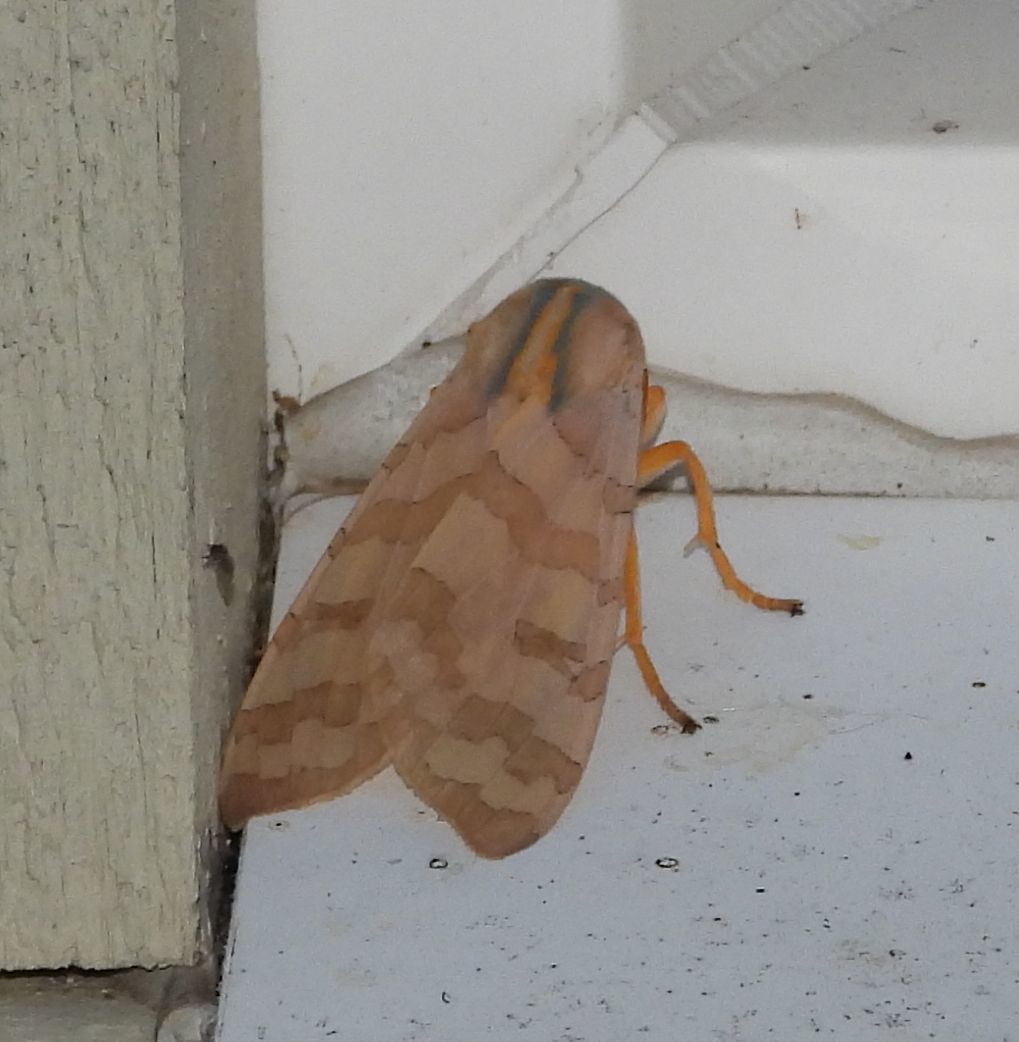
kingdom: Animalia
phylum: Arthropoda
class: Insecta
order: Lepidoptera
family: Erebidae
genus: Halysidota
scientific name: Halysidota tessellaris
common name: Banded tussock moth
